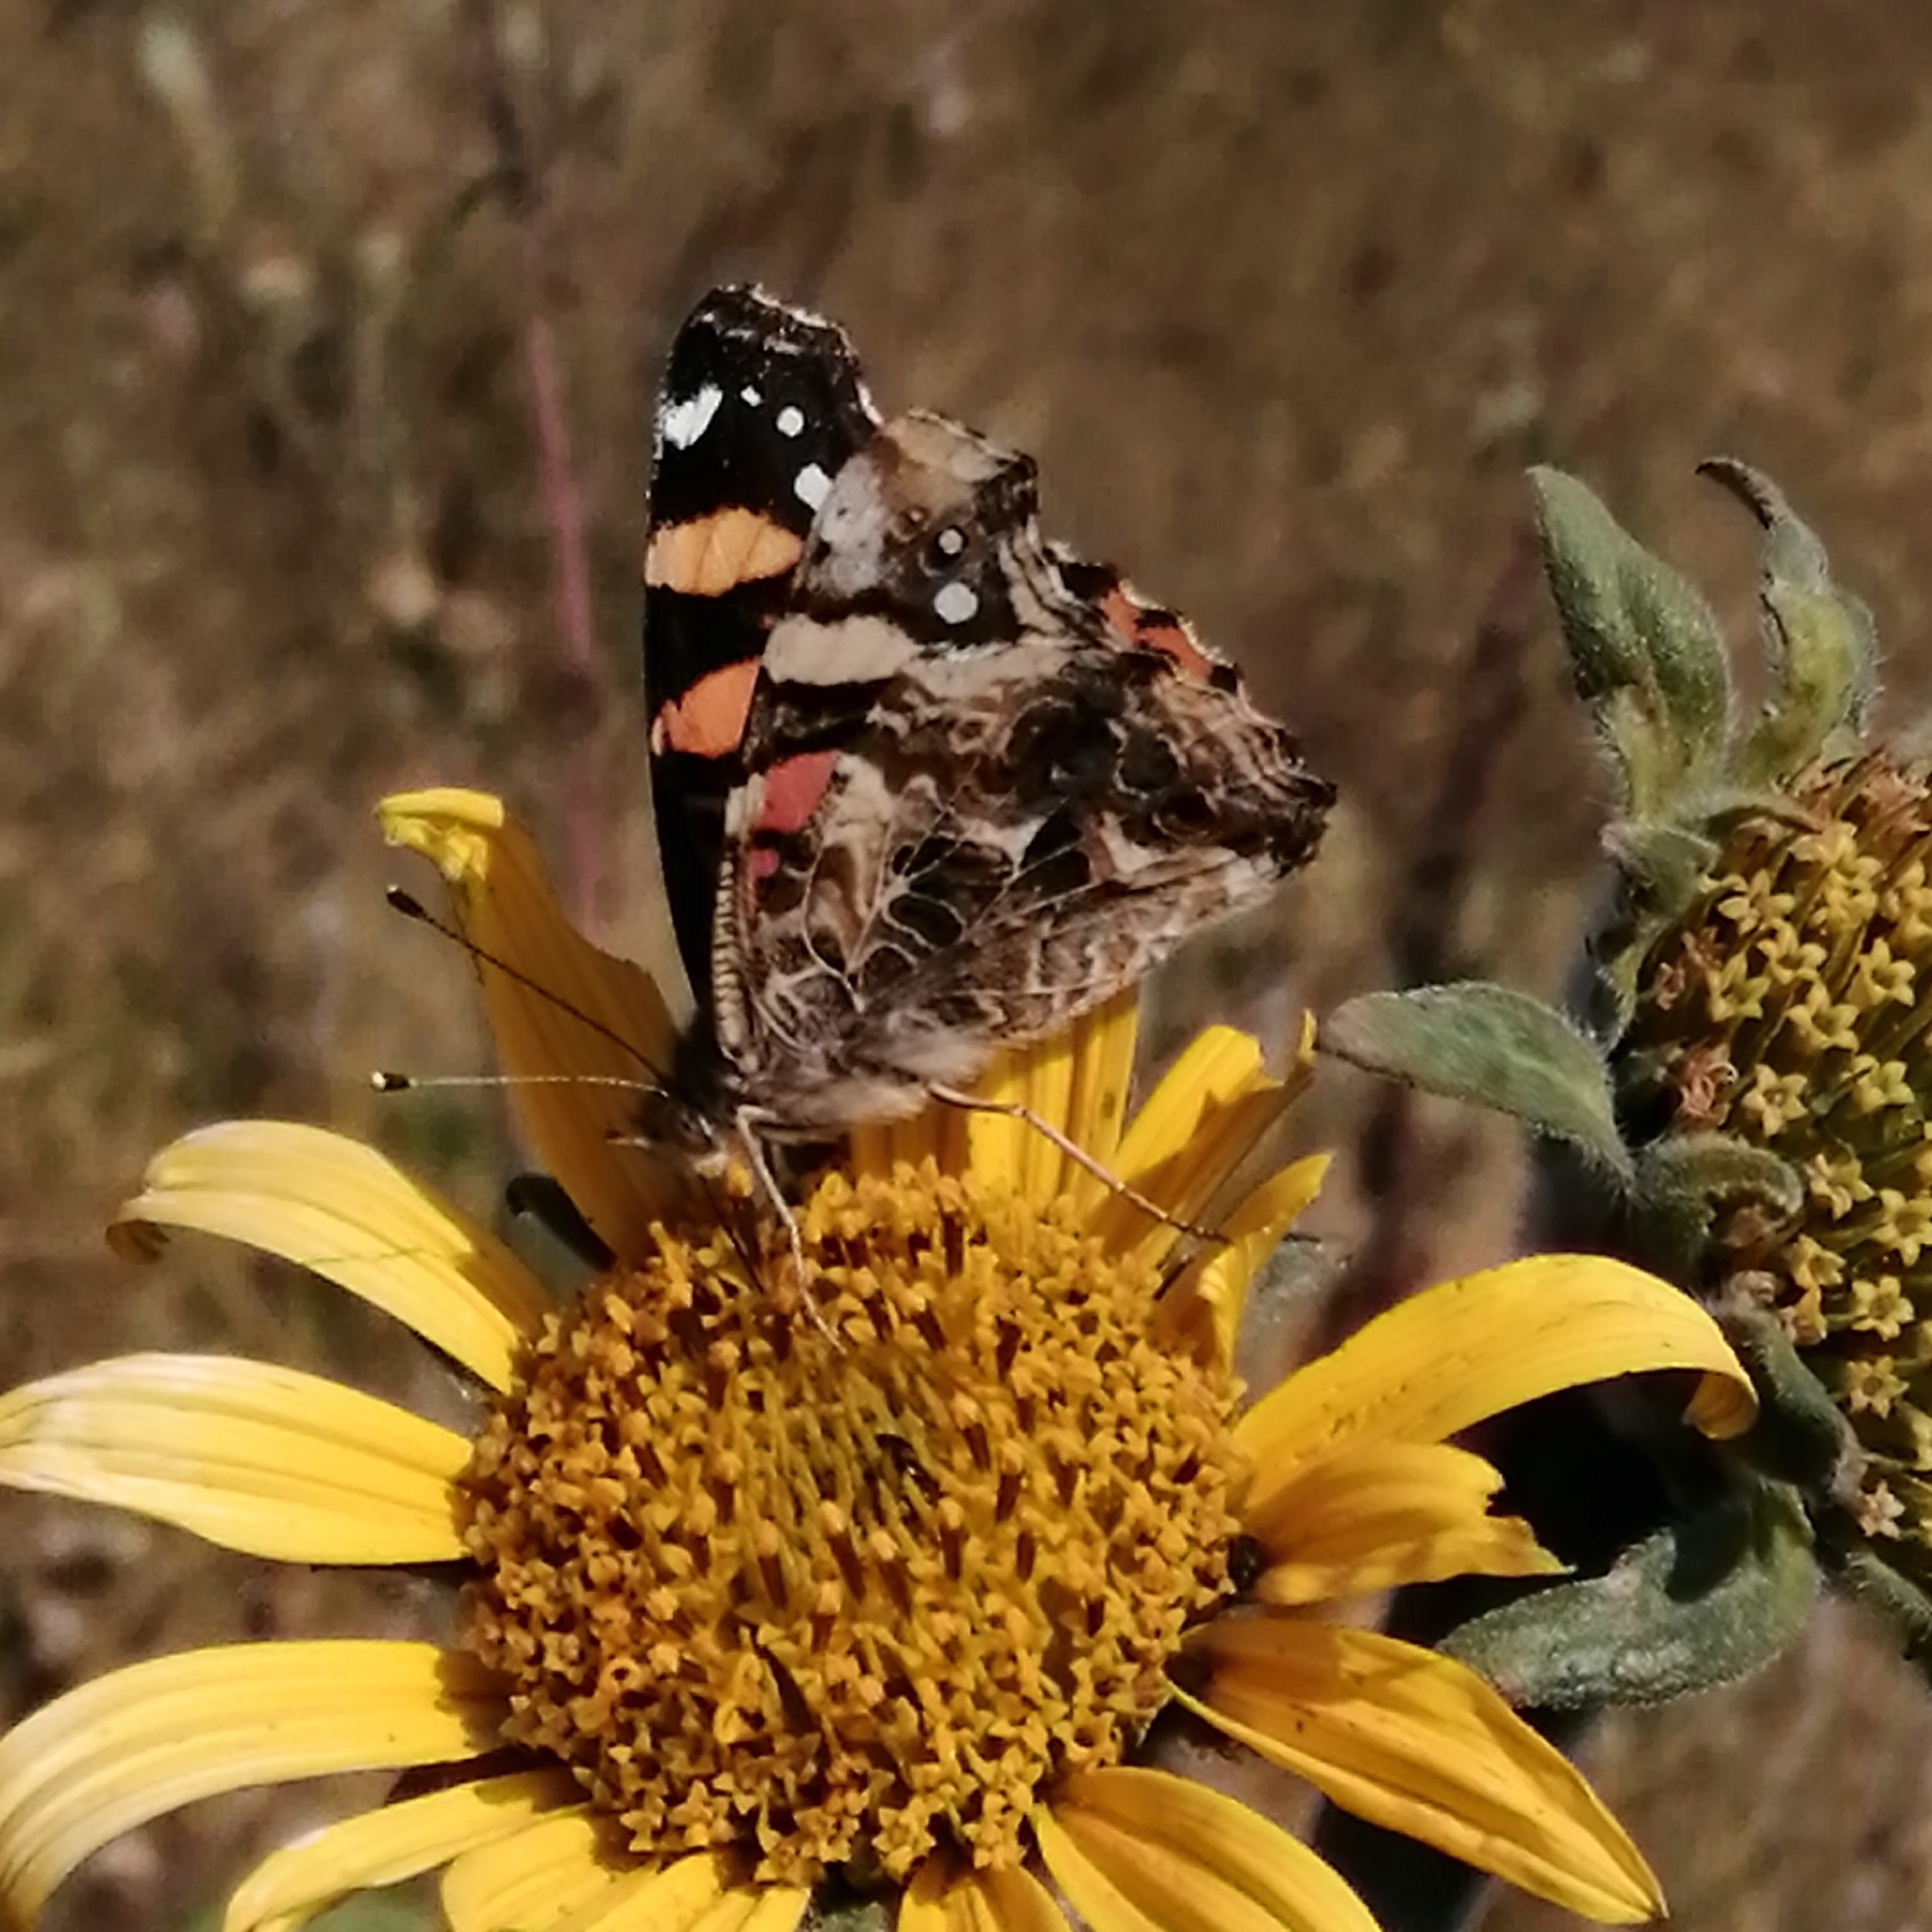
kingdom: Animalia
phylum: Arthropoda
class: Insecta
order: Lepidoptera
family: Nymphalidae
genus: Vanessa
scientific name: Vanessa annabella
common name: West coast lady
